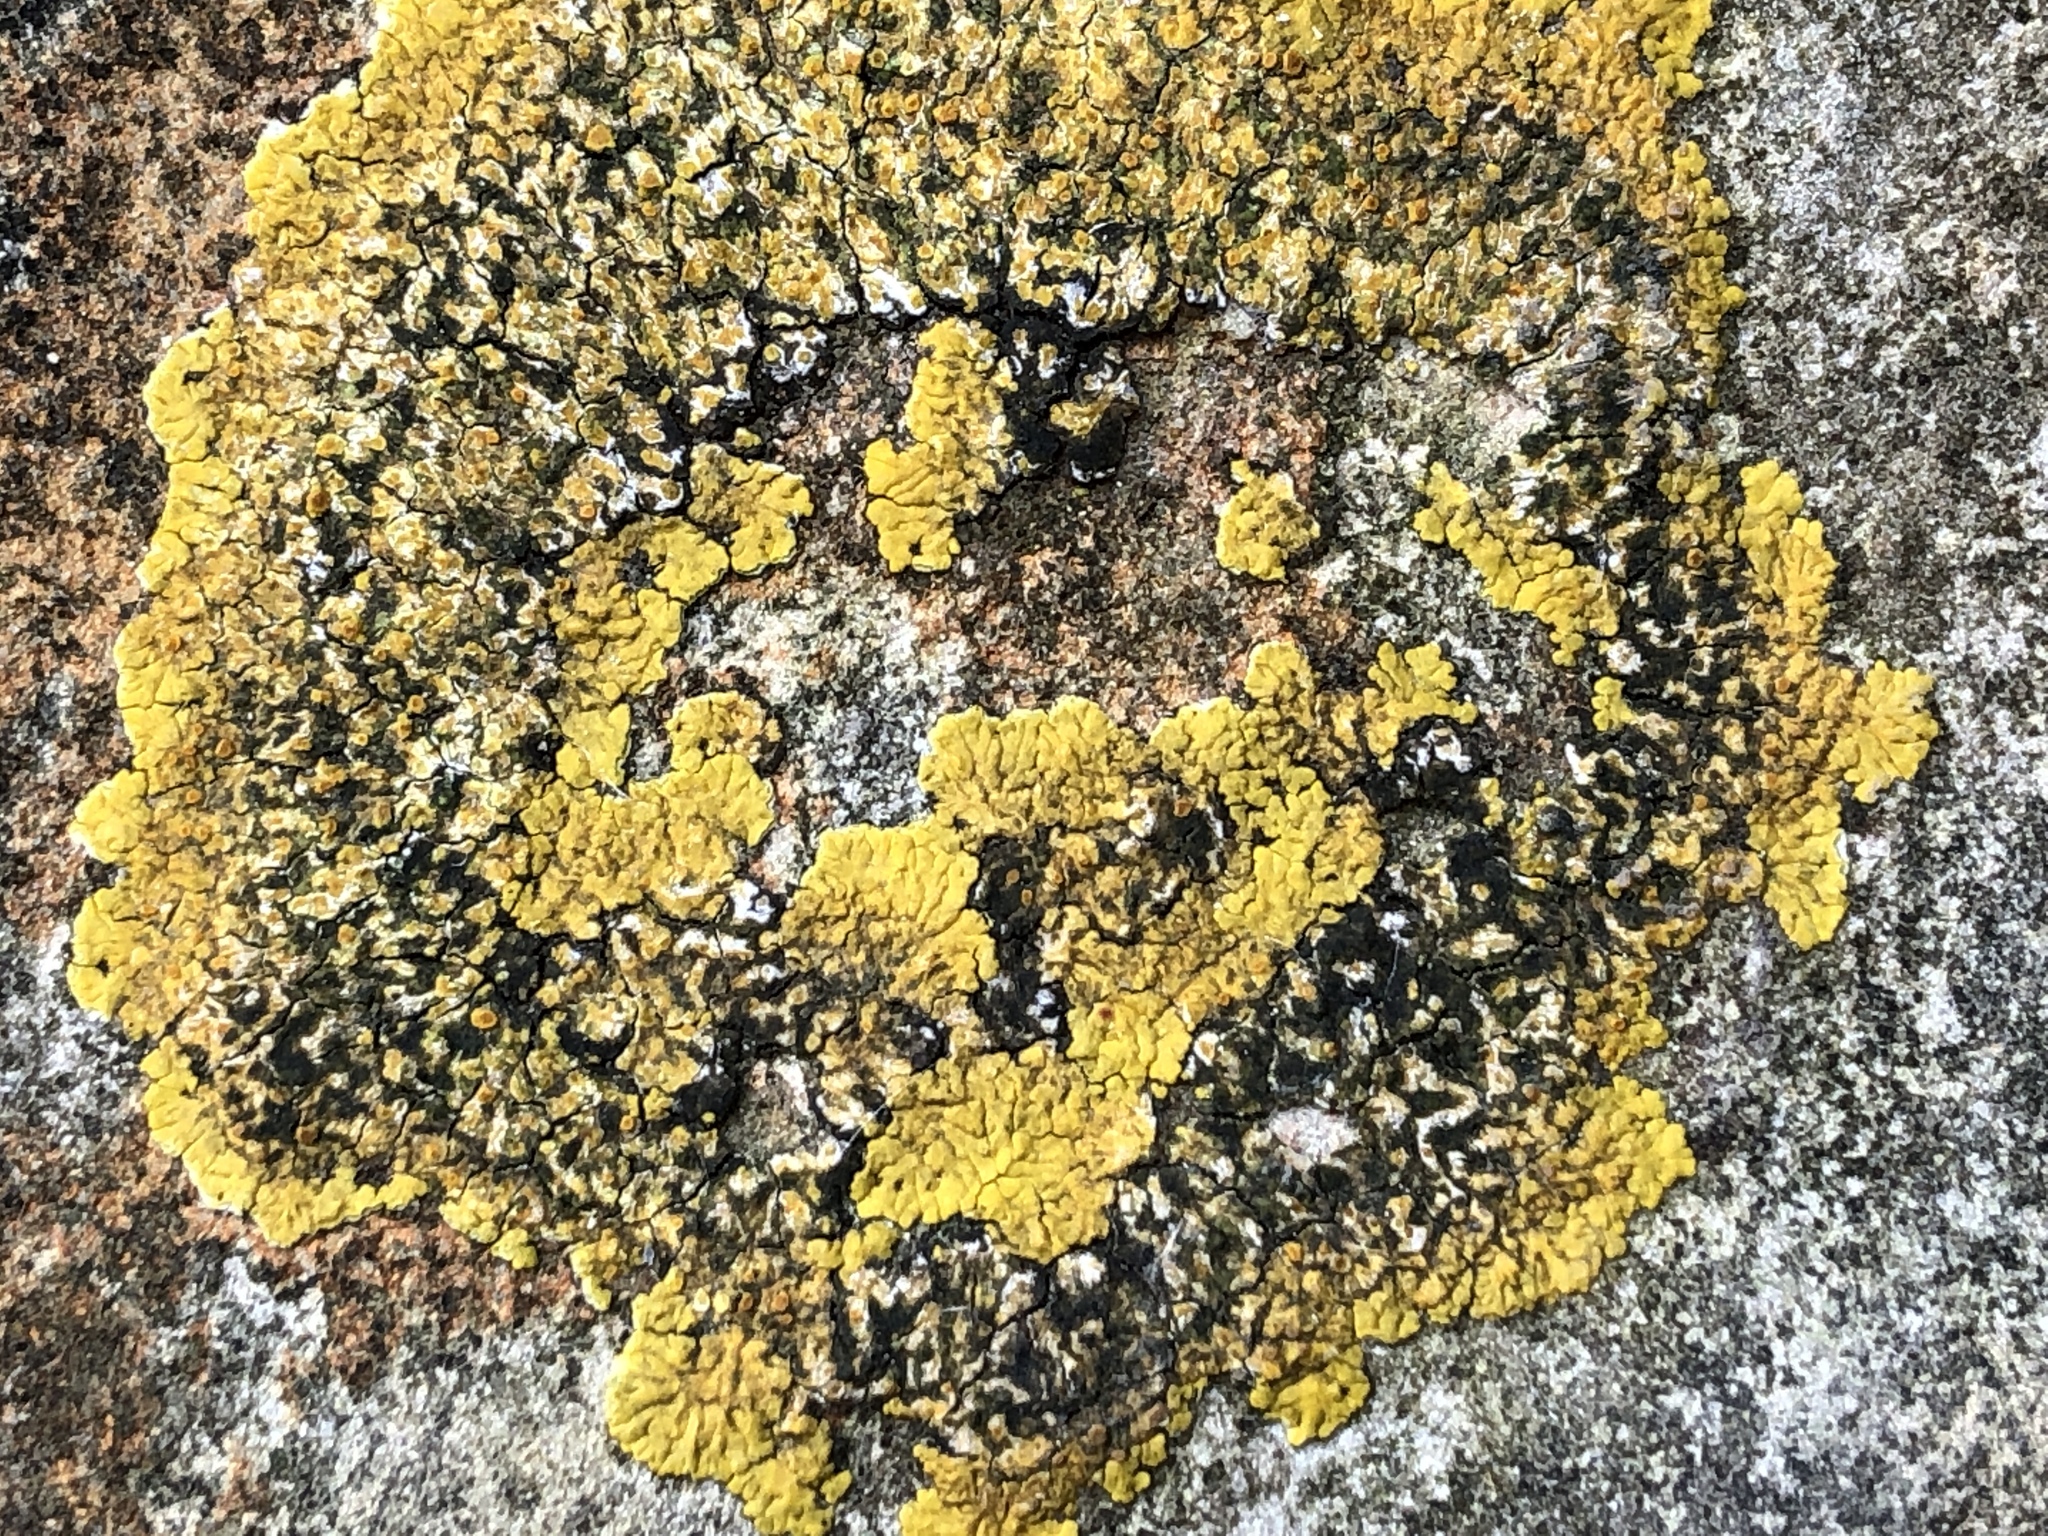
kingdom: Fungi
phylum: Ascomycota
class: Lecanoromycetes
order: Teloschistales
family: Teloschistaceae
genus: Variospora
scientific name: Variospora flavescens
